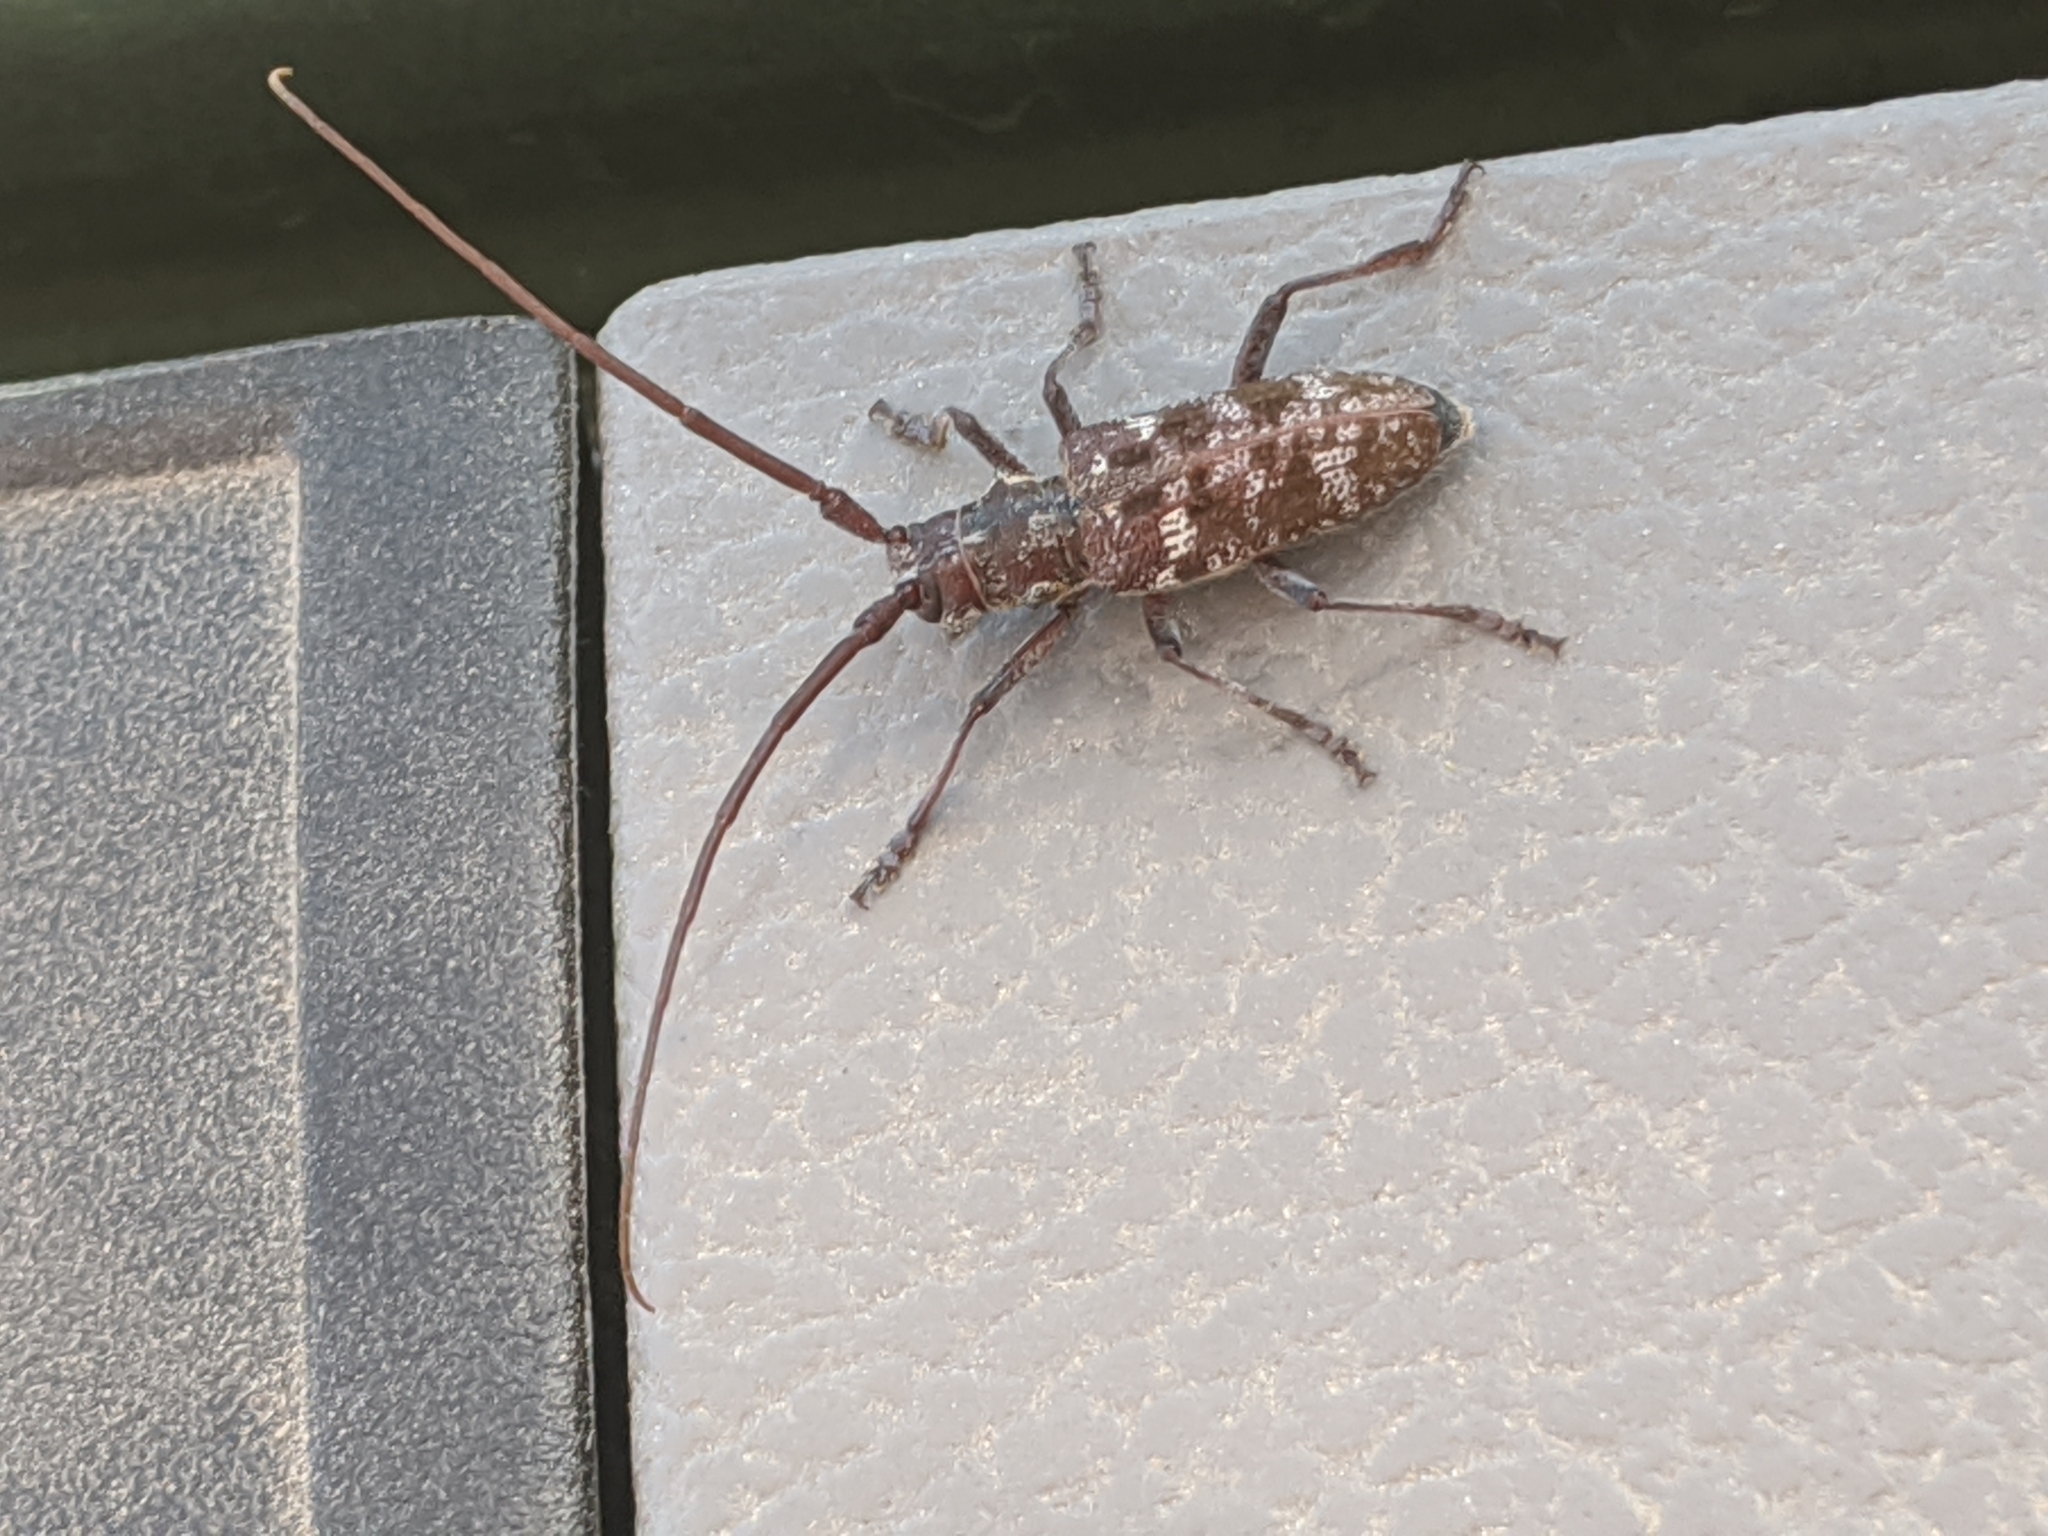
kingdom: Animalia
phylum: Arthropoda
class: Insecta
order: Coleoptera
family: Cerambycidae
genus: Monochamus
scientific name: Monochamus obtusus
